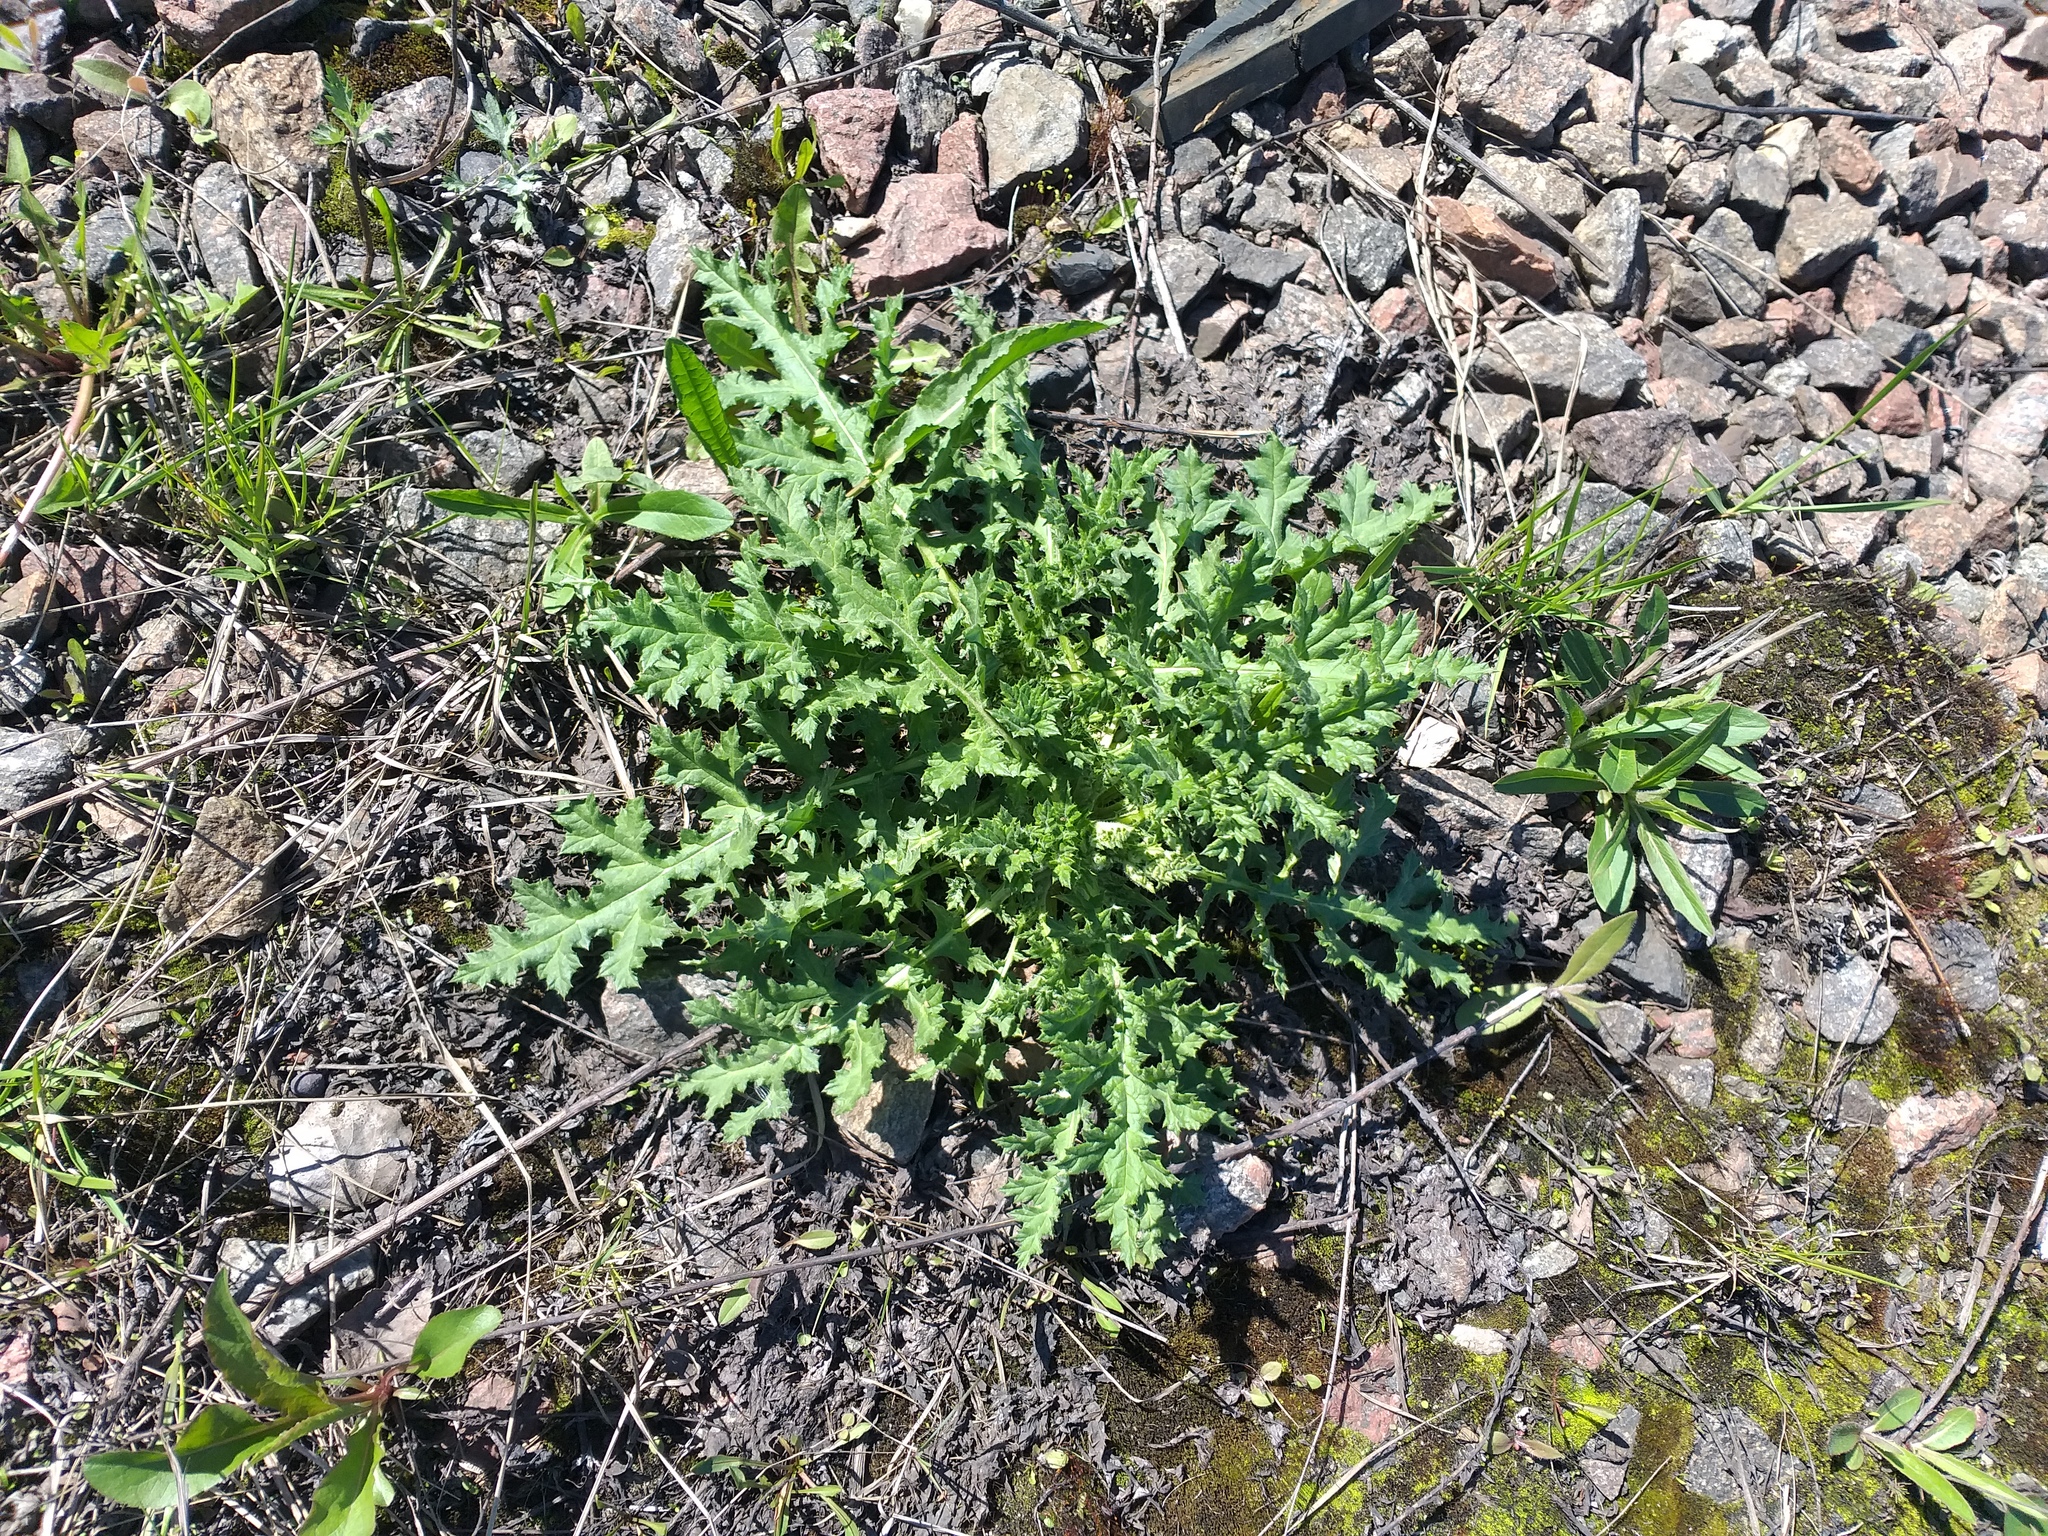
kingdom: Plantae
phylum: Tracheophyta
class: Magnoliopsida
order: Asterales
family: Asteraceae
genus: Echinops
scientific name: Echinops sphaerocephalus
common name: Glandular globe-thistle
